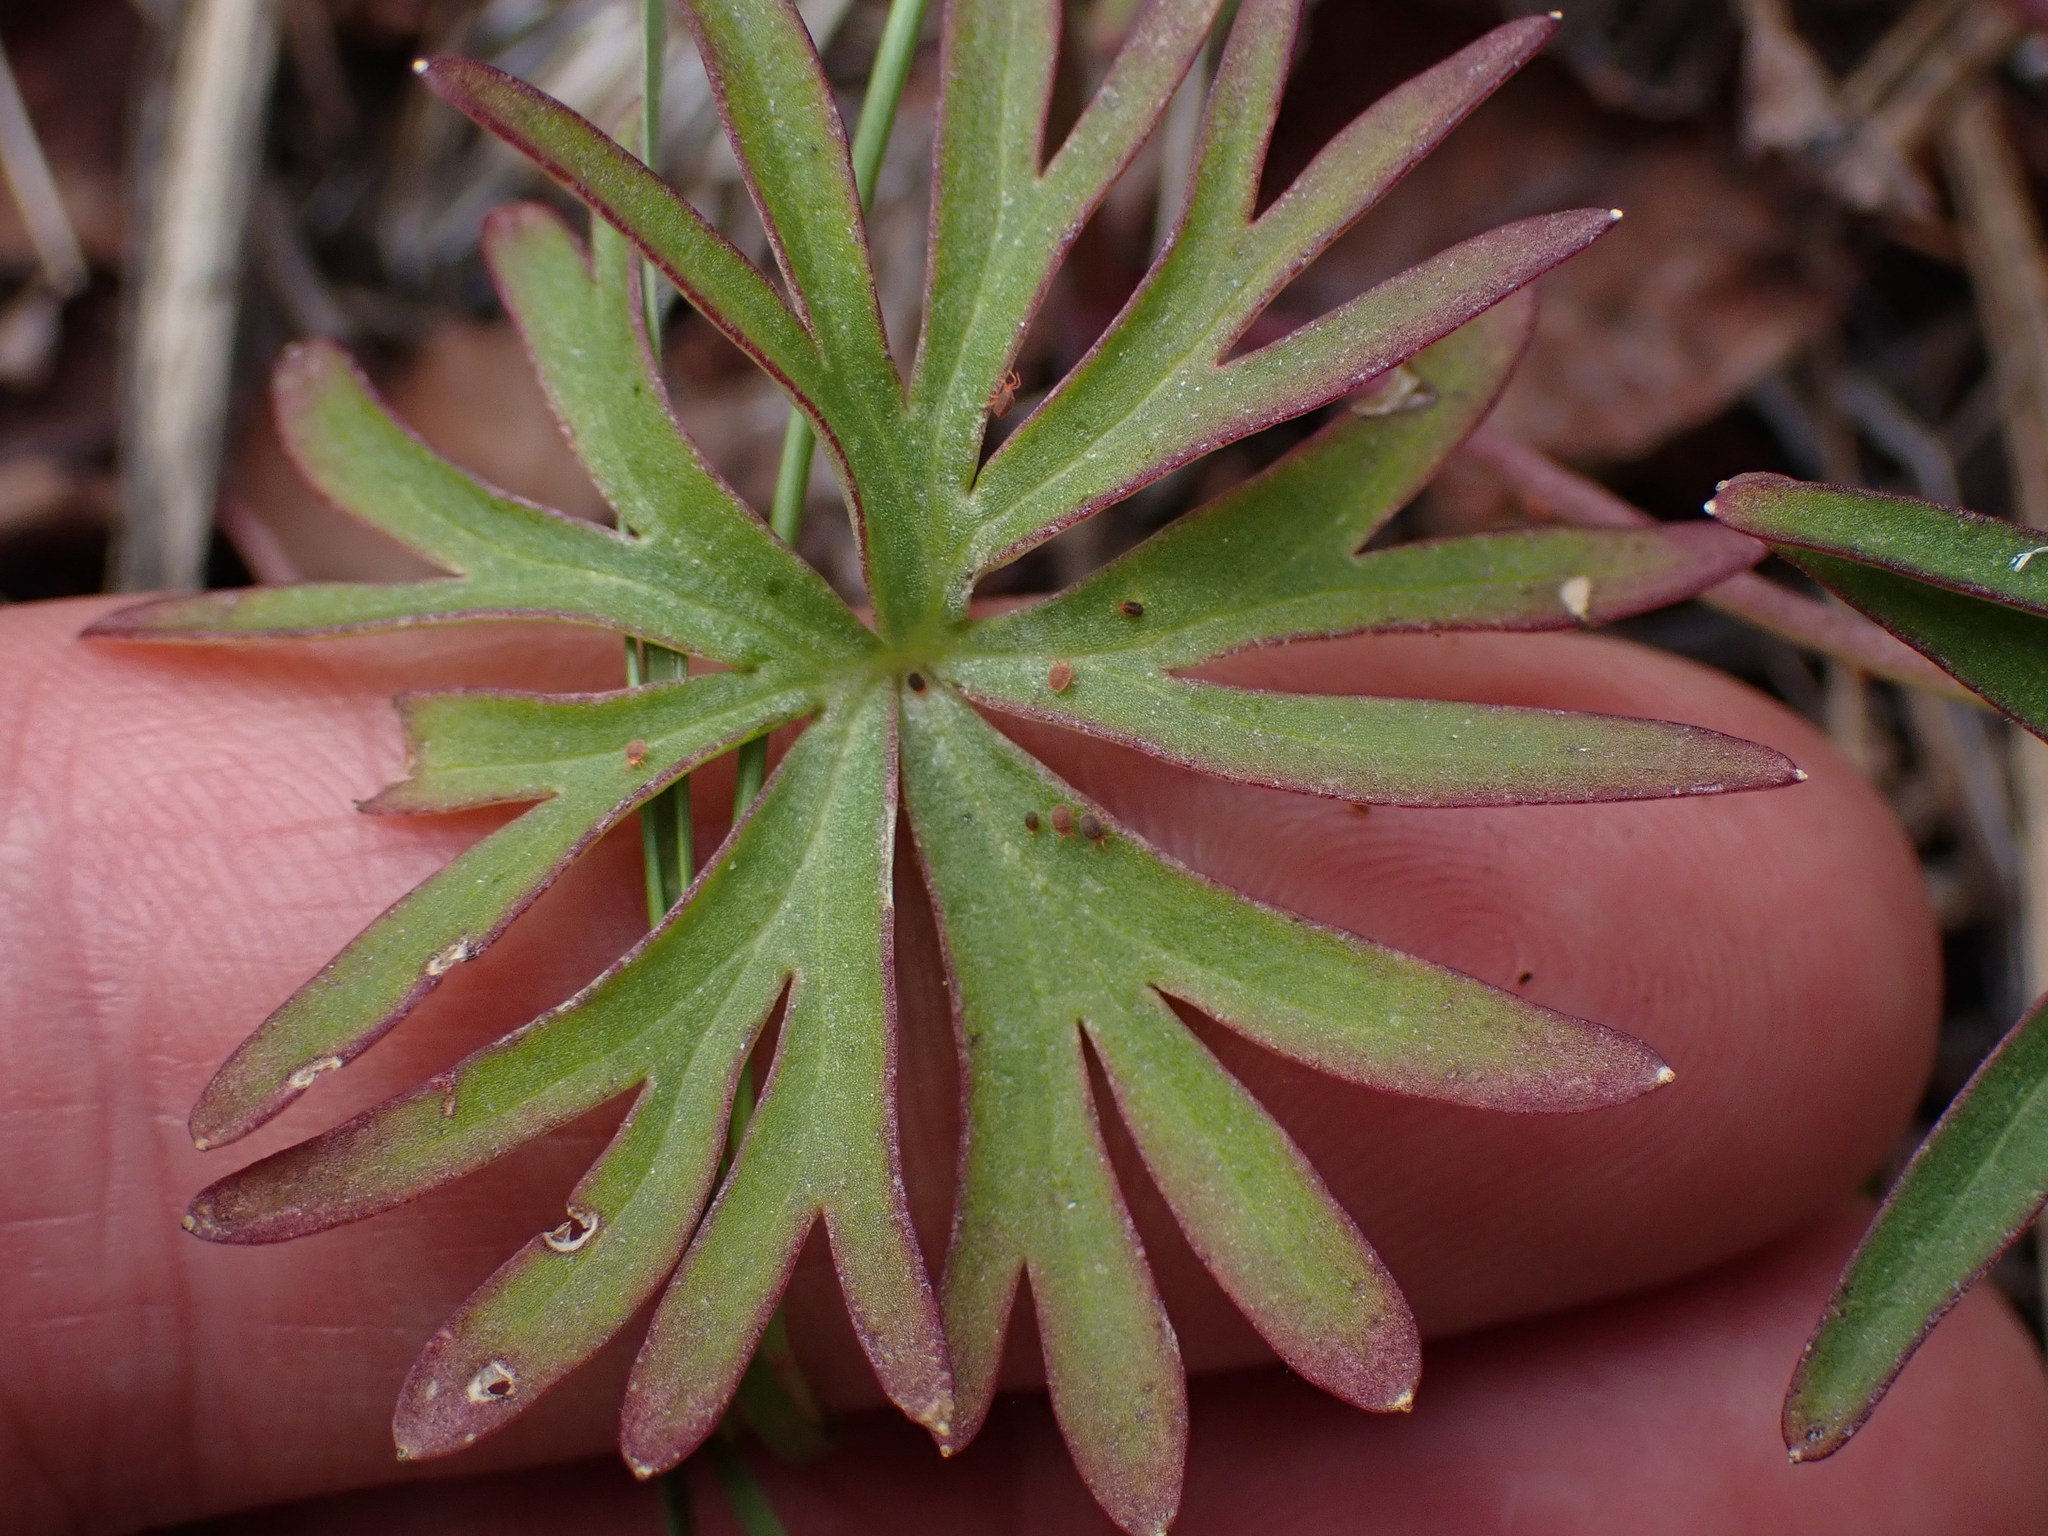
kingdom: Plantae
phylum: Tracheophyta
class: Magnoliopsida
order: Ranunculales
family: Ranunculaceae
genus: Delphinium
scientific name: Delphinium nuttallianum
